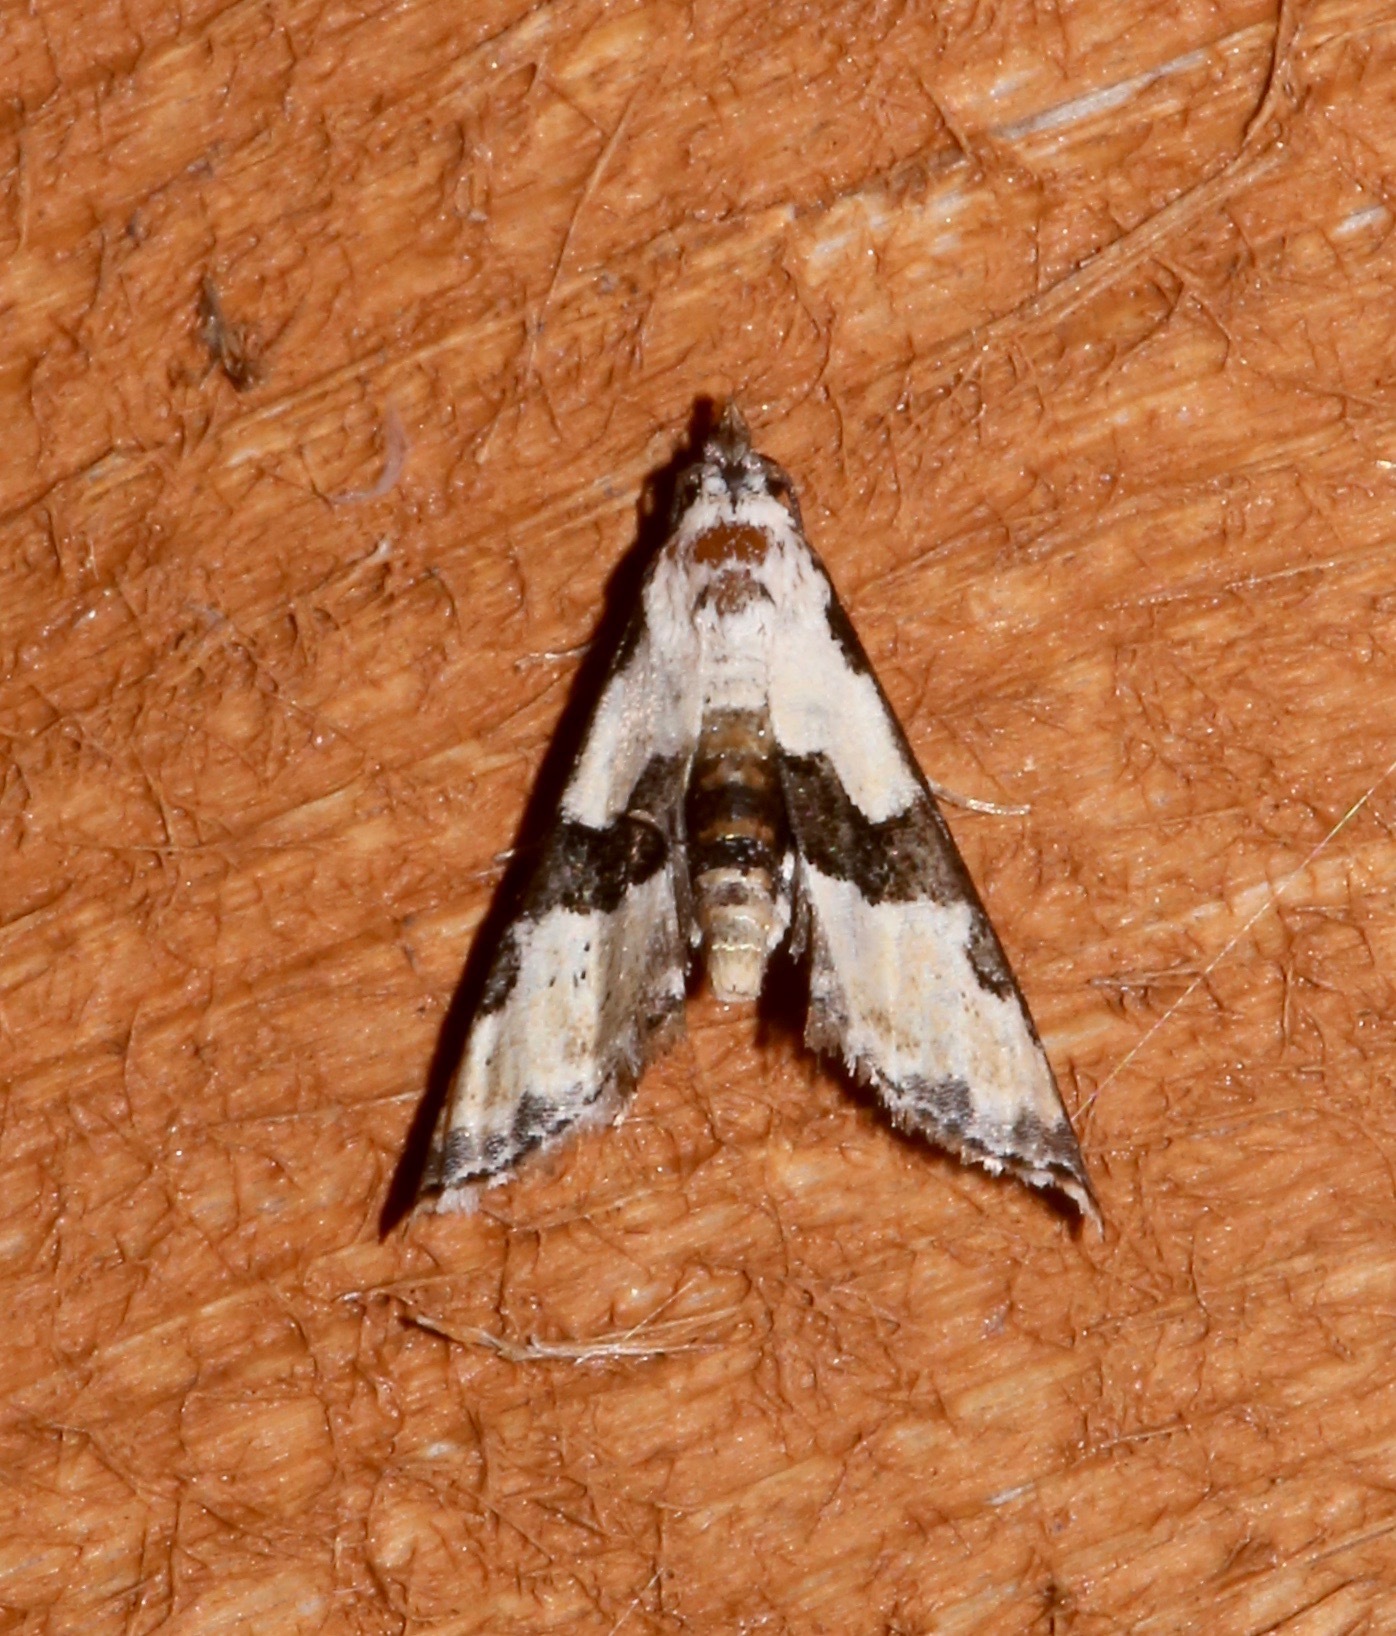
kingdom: Animalia
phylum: Arthropoda
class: Insecta
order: Lepidoptera
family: Noctuidae
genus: Nigetia
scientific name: Nigetia formosalis
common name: Thin-winged owlet
